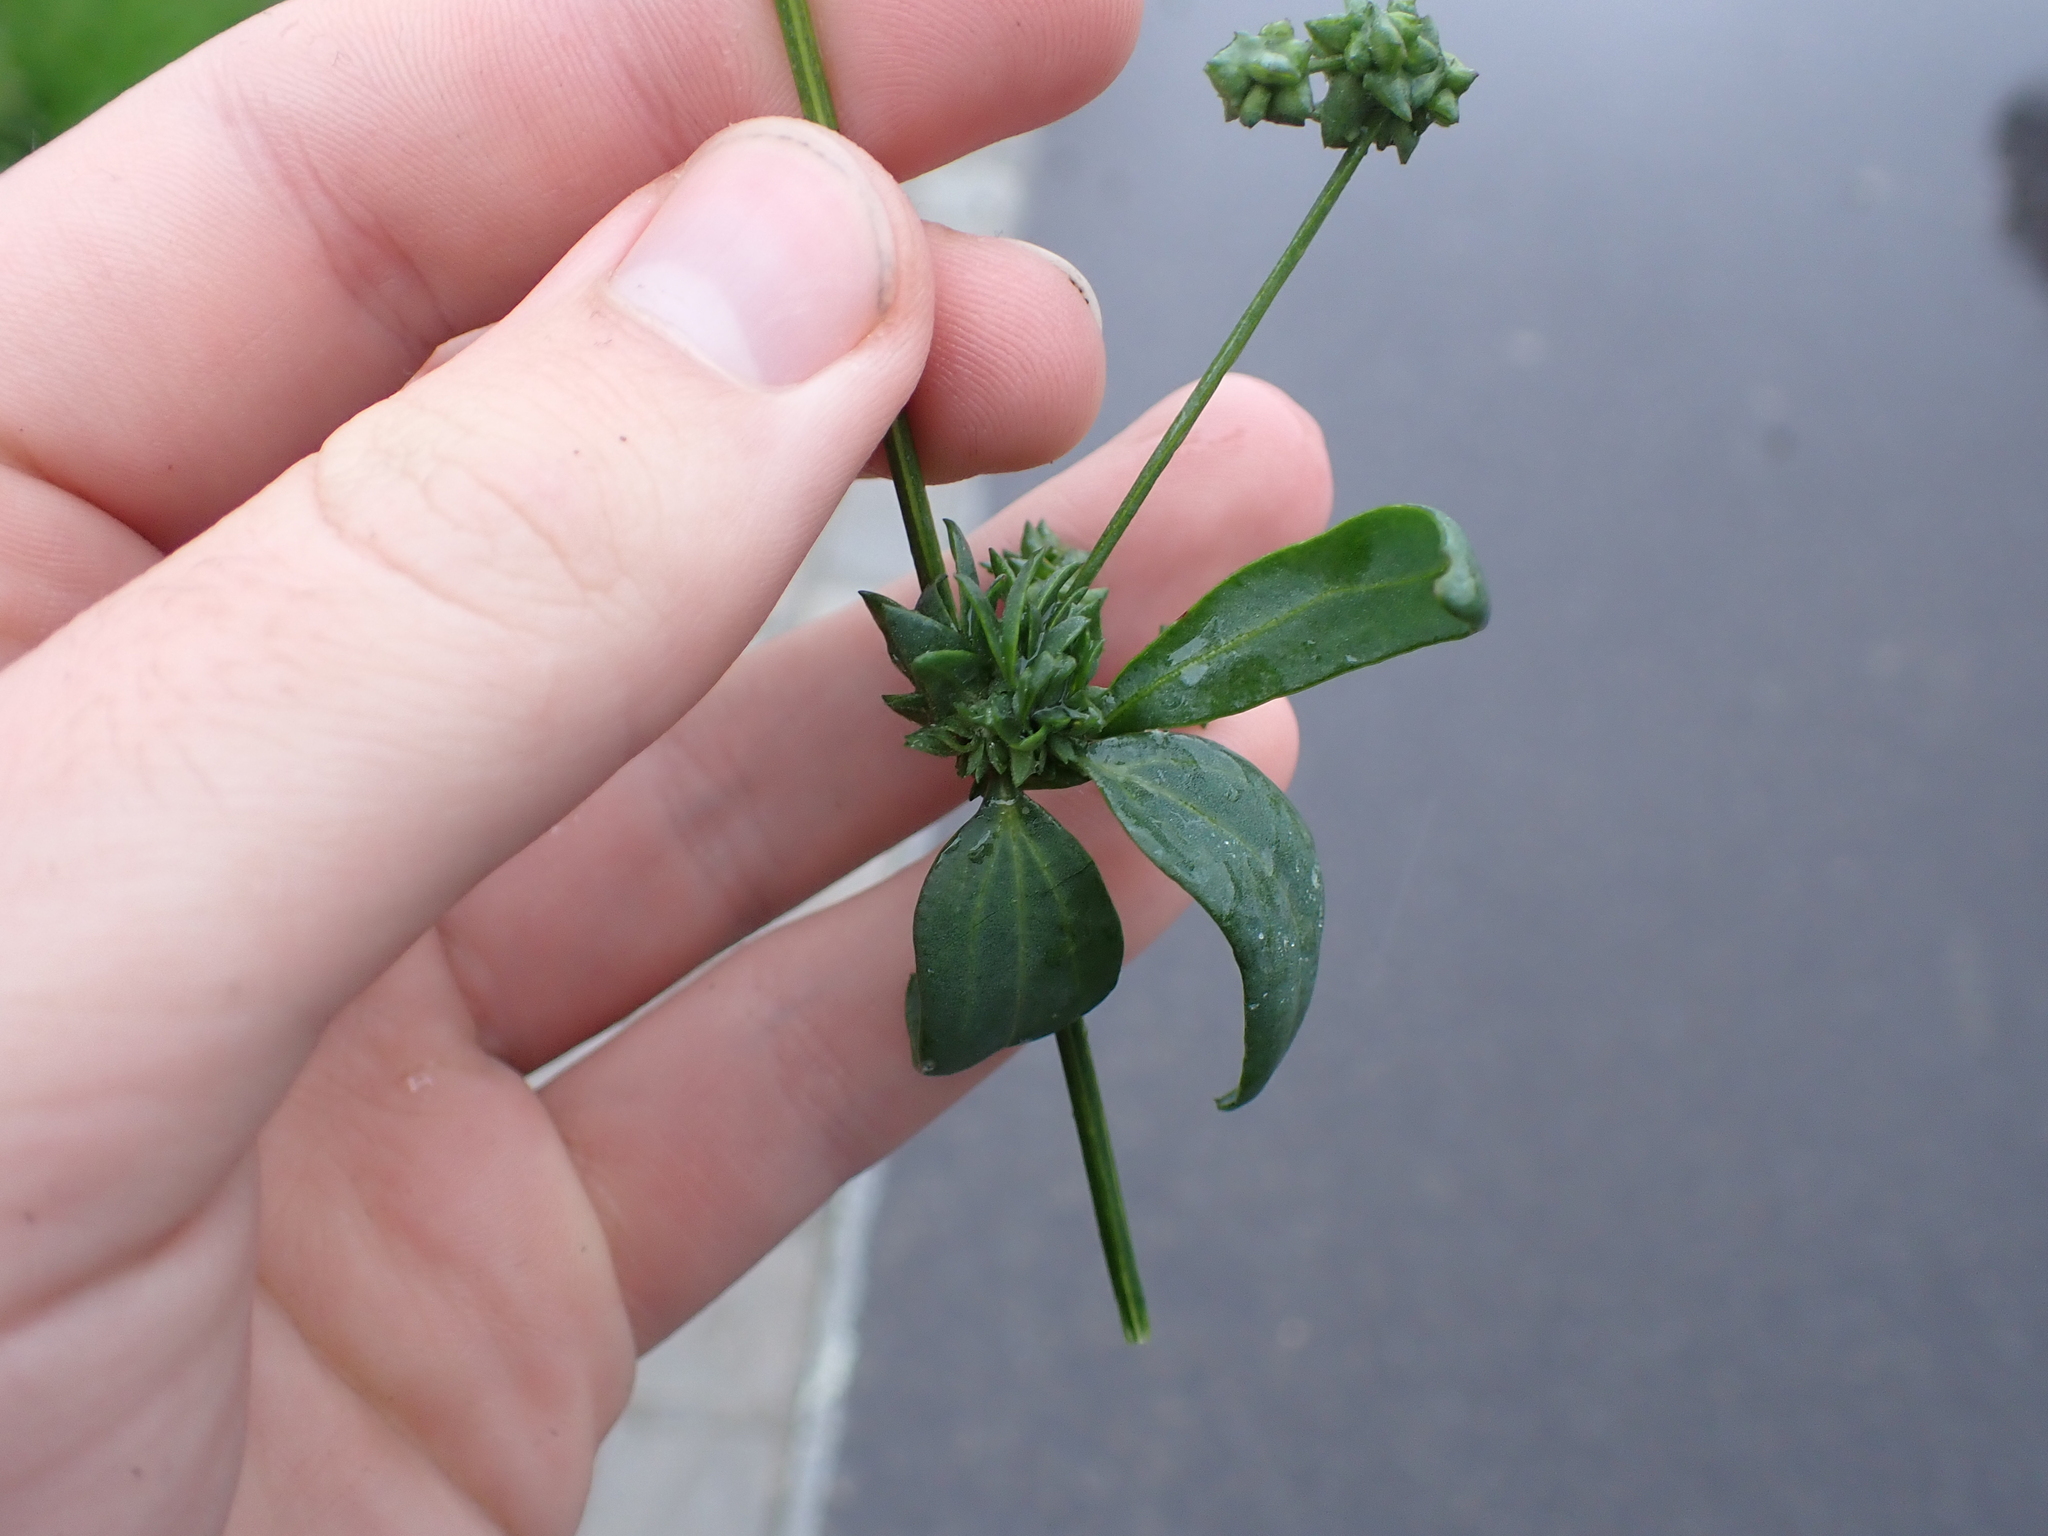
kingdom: Plantae
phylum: Tracheophyta
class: Magnoliopsida
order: Caryophyllales
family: Amaranthaceae
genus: Atriplex
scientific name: Atriplex patula
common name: Common orache
